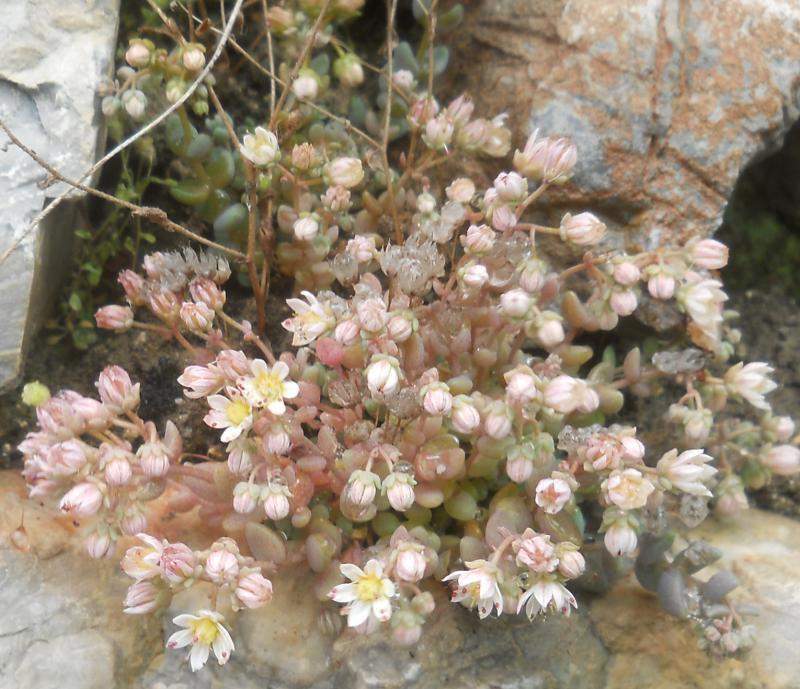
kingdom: Plantae
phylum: Tracheophyta
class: Magnoliopsida
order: Saxifragales
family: Crassulaceae
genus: Sedum
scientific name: Sedum dasyphyllum
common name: Thick-leaf stonecrop
